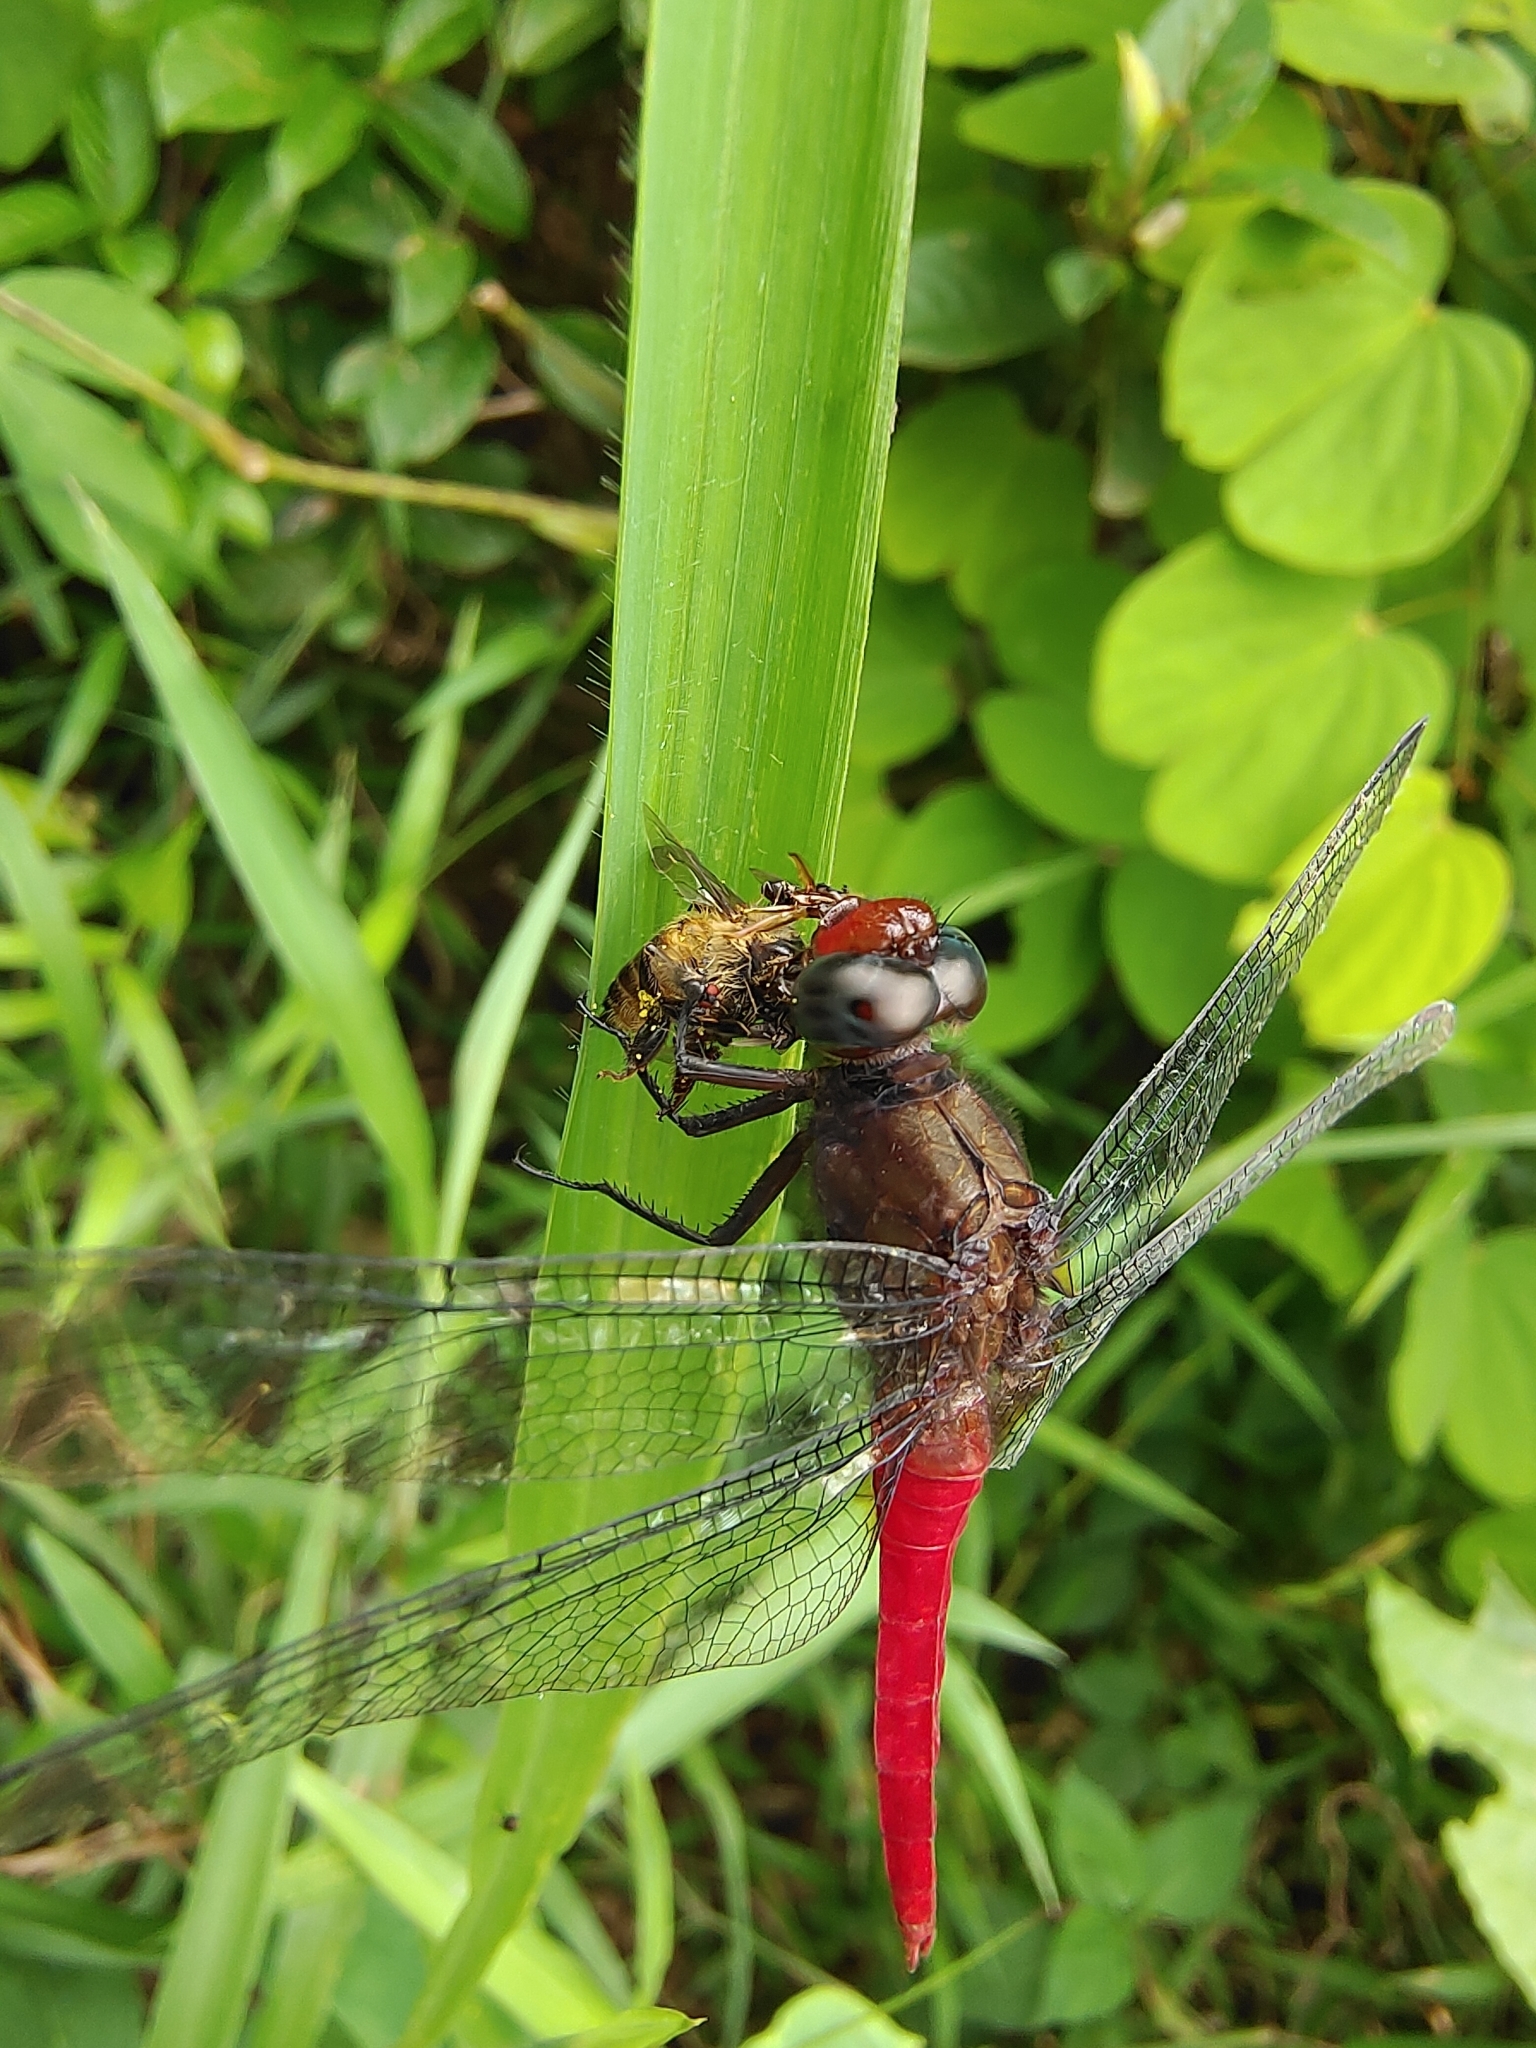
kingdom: Animalia
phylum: Arthropoda
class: Insecta
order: Odonata
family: Libellulidae
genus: Orthetrum
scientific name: Orthetrum chrysis
